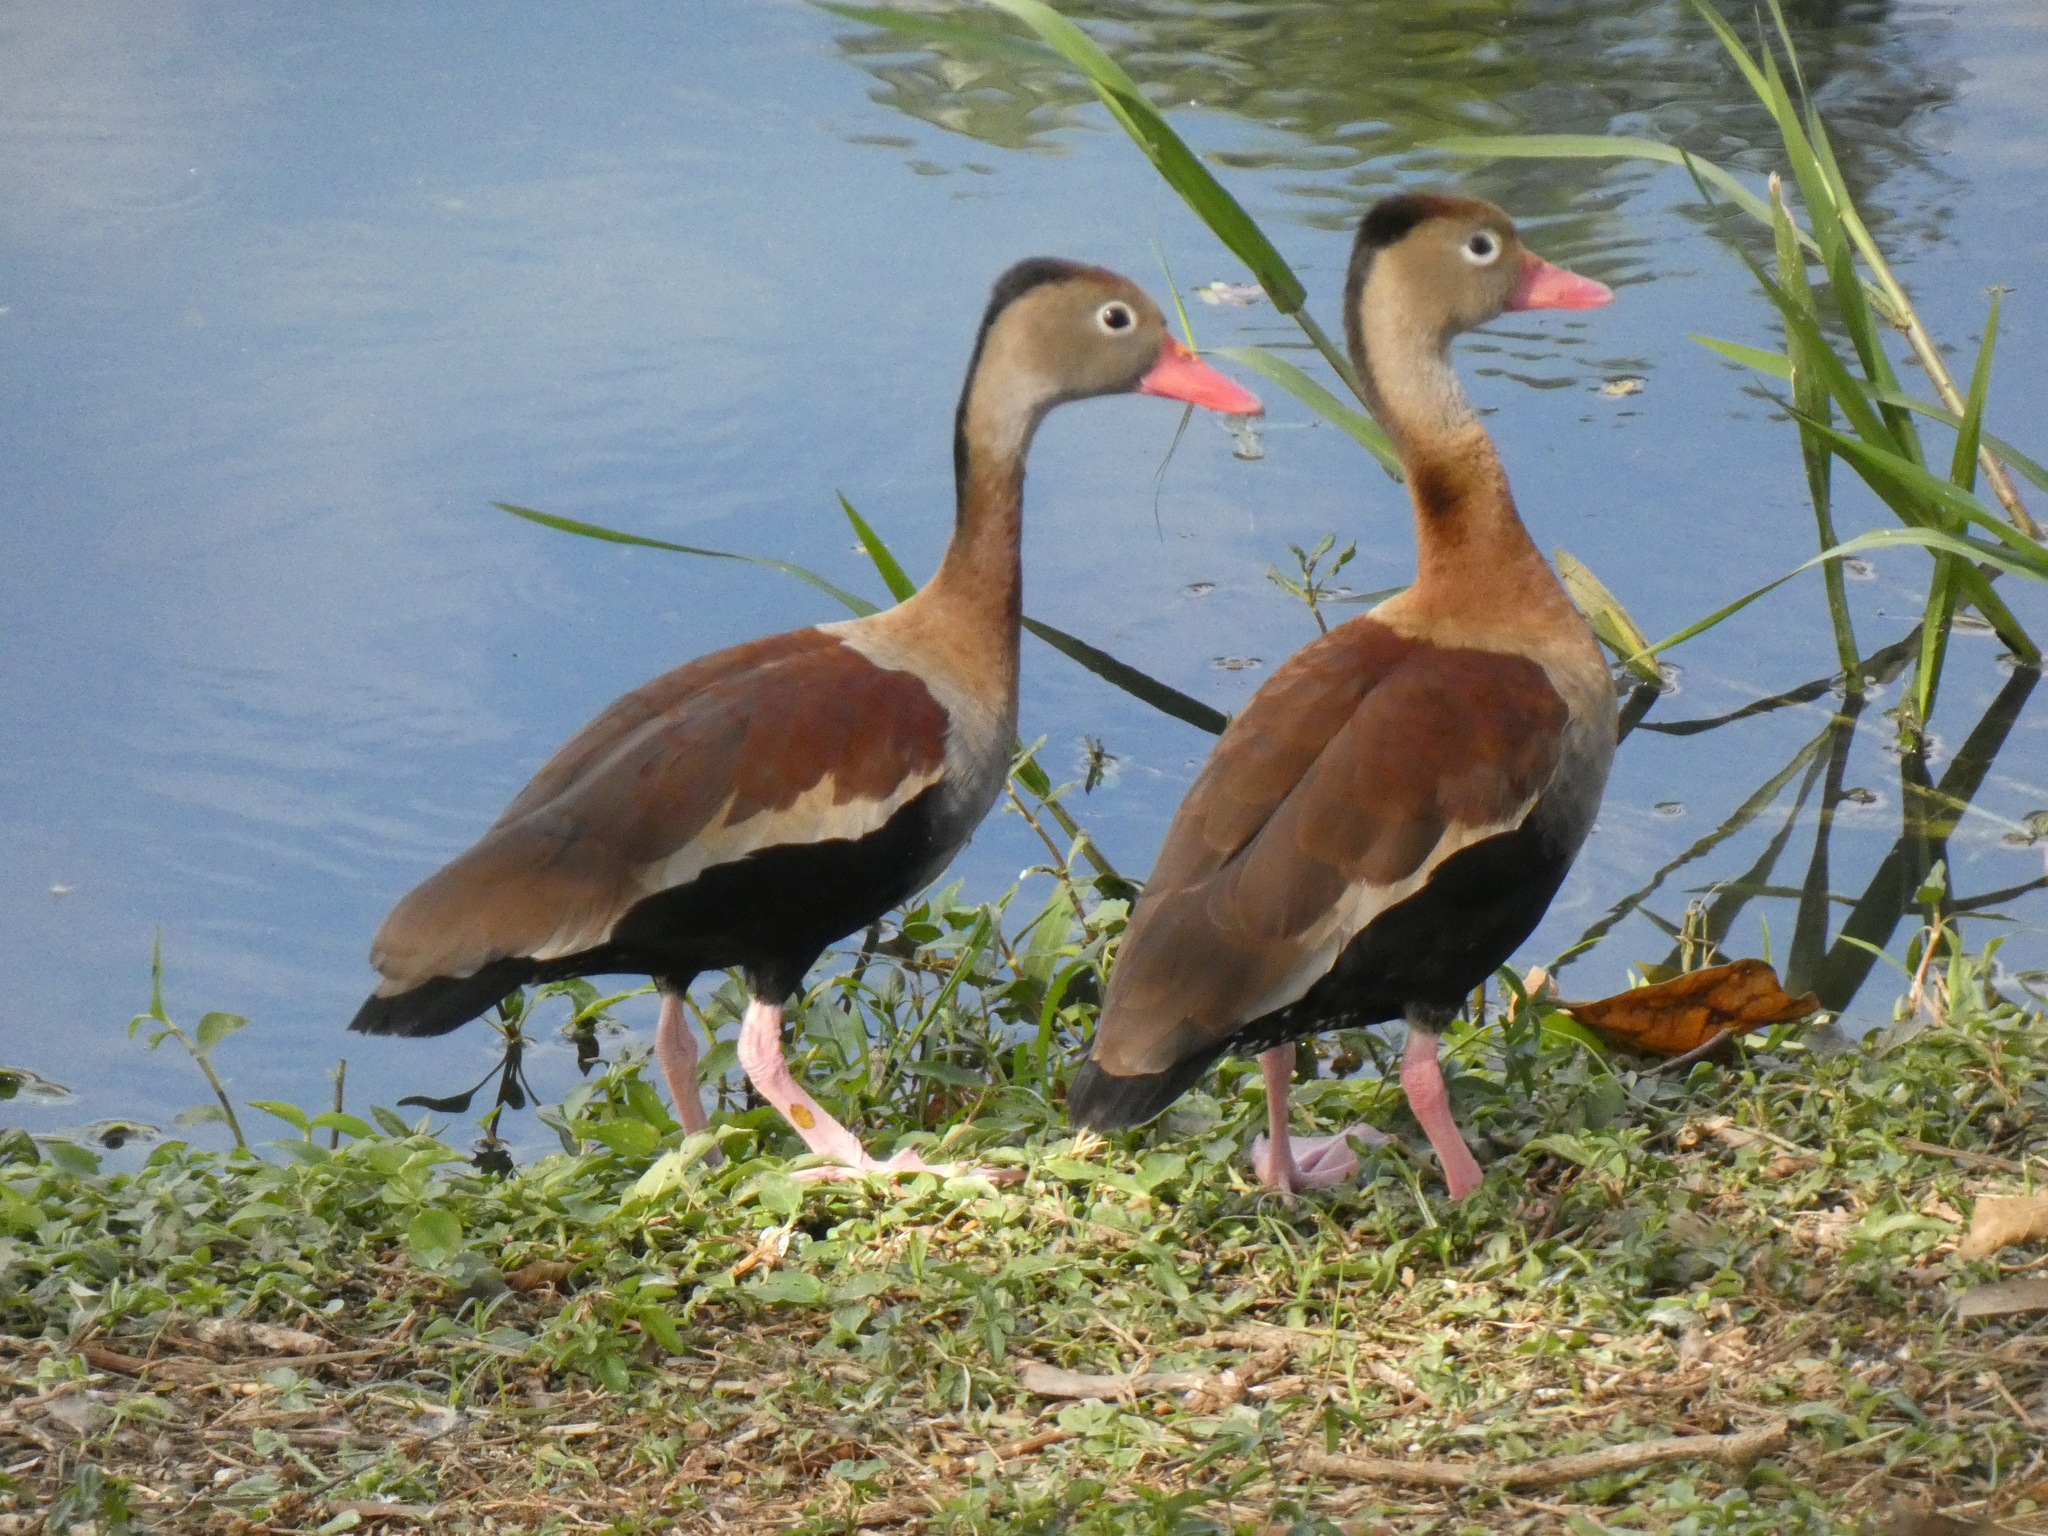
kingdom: Animalia
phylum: Chordata
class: Aves
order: Anseriformes
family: Anatidae
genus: Dendrocygna
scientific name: Dendrocygna autumnalis
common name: Black-bellied whistling duck
